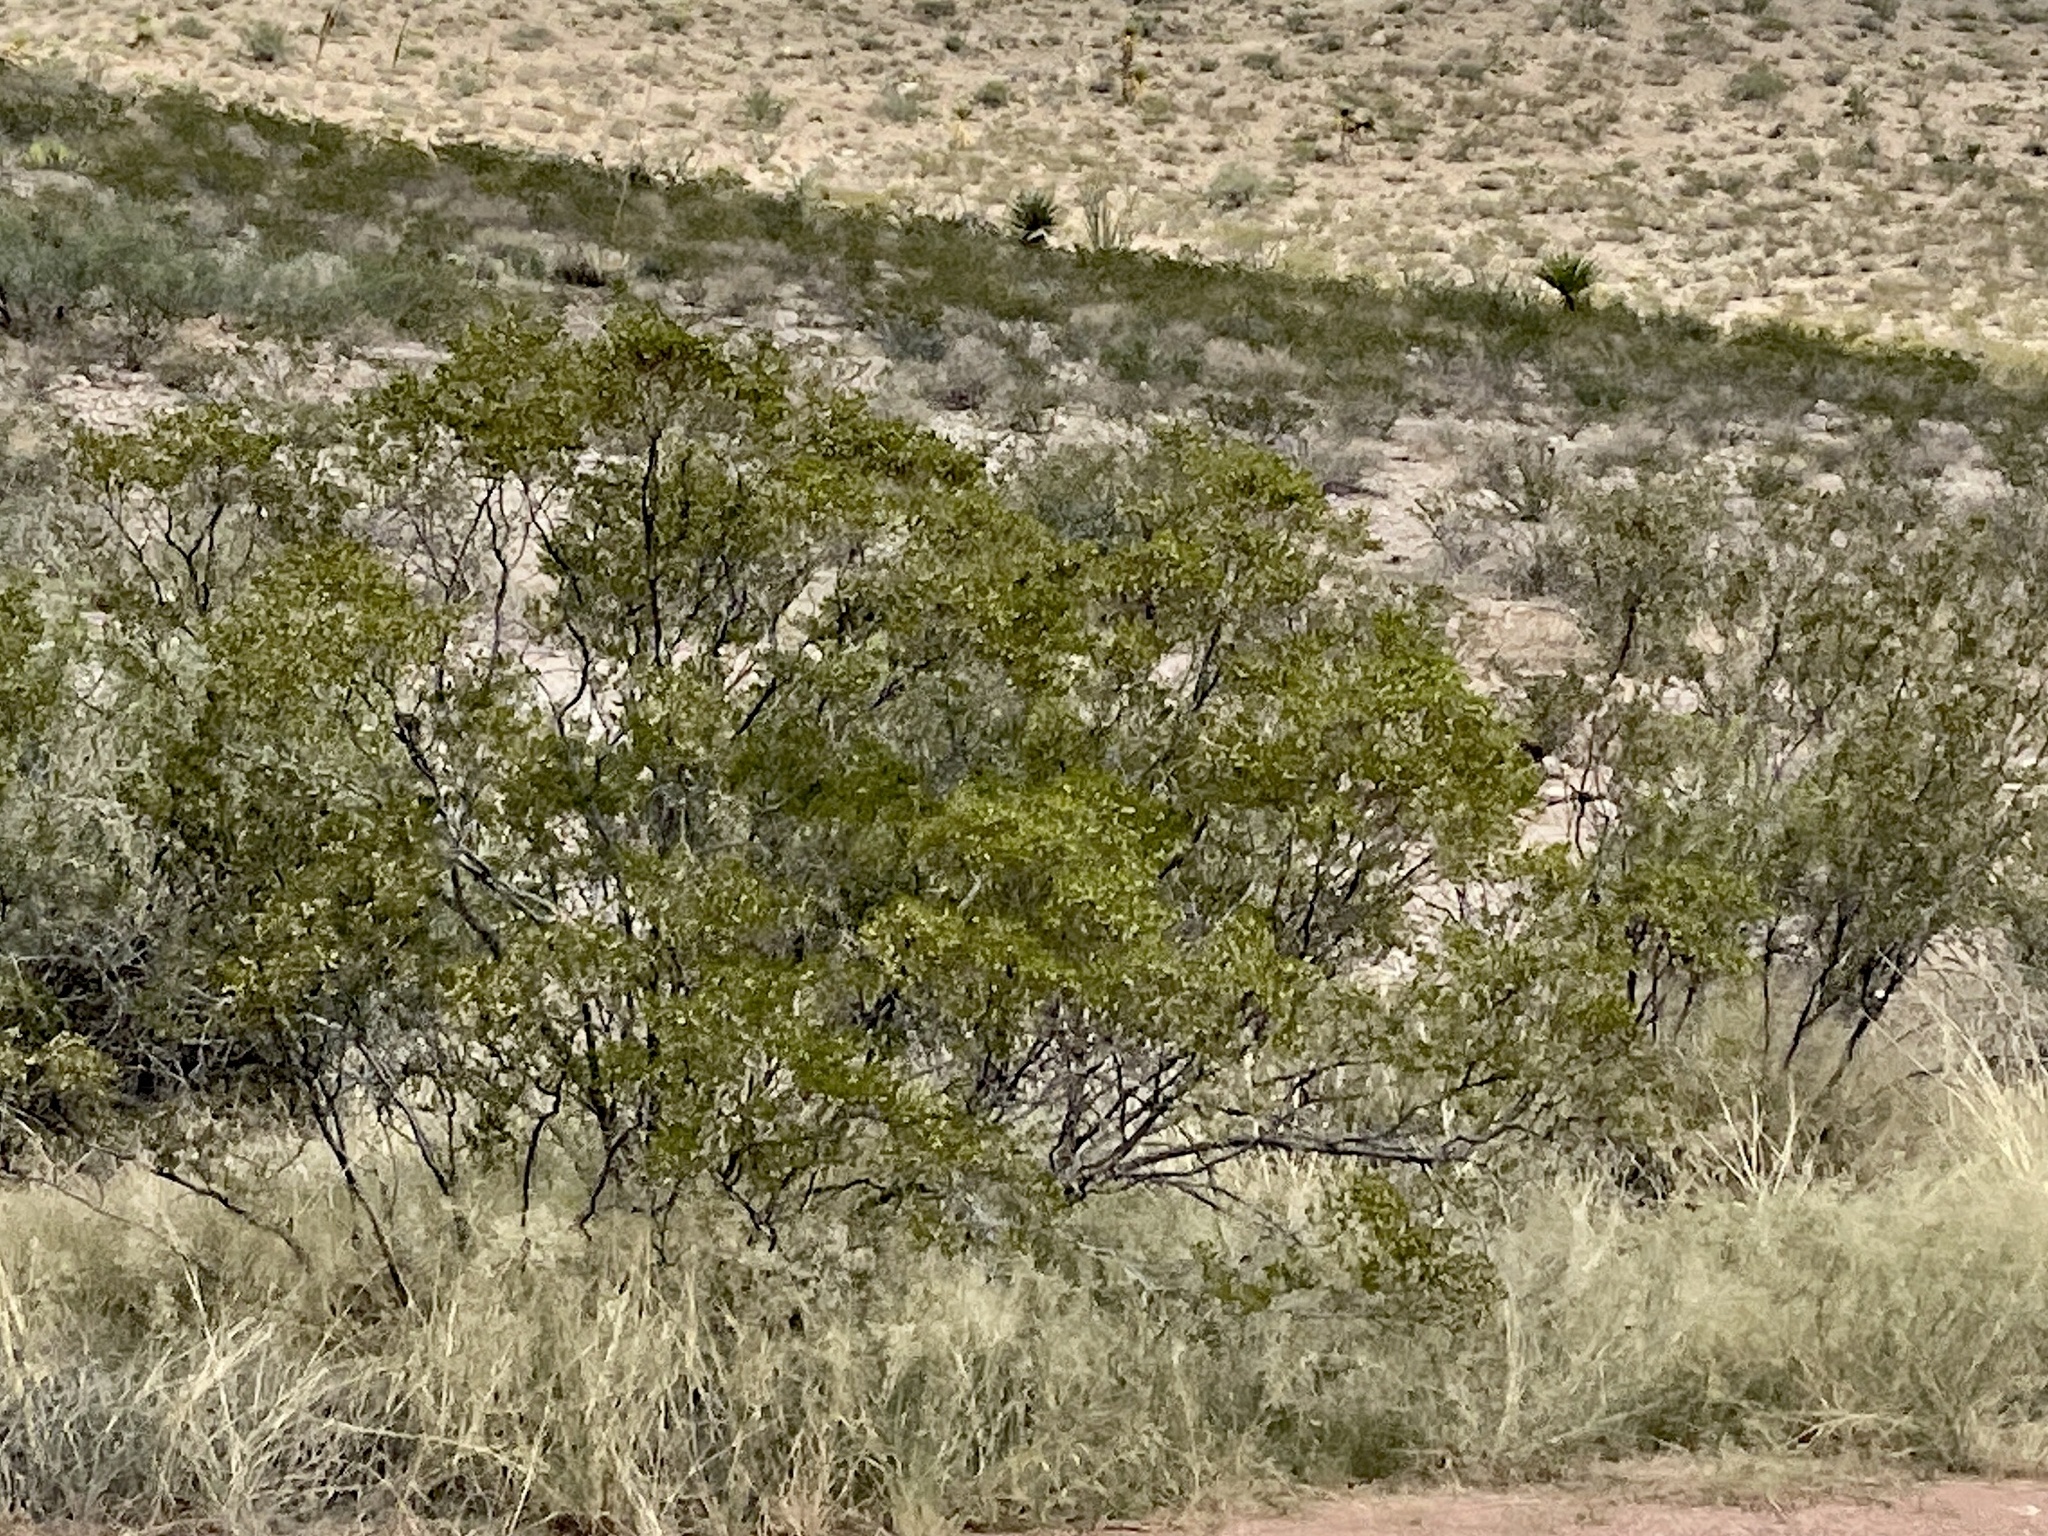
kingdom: Plantae
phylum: Tracheophyta
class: Magnoliopsida
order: Zygophyllales
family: Zygophyllaceae
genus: Larrea
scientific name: Larrea tridentata
